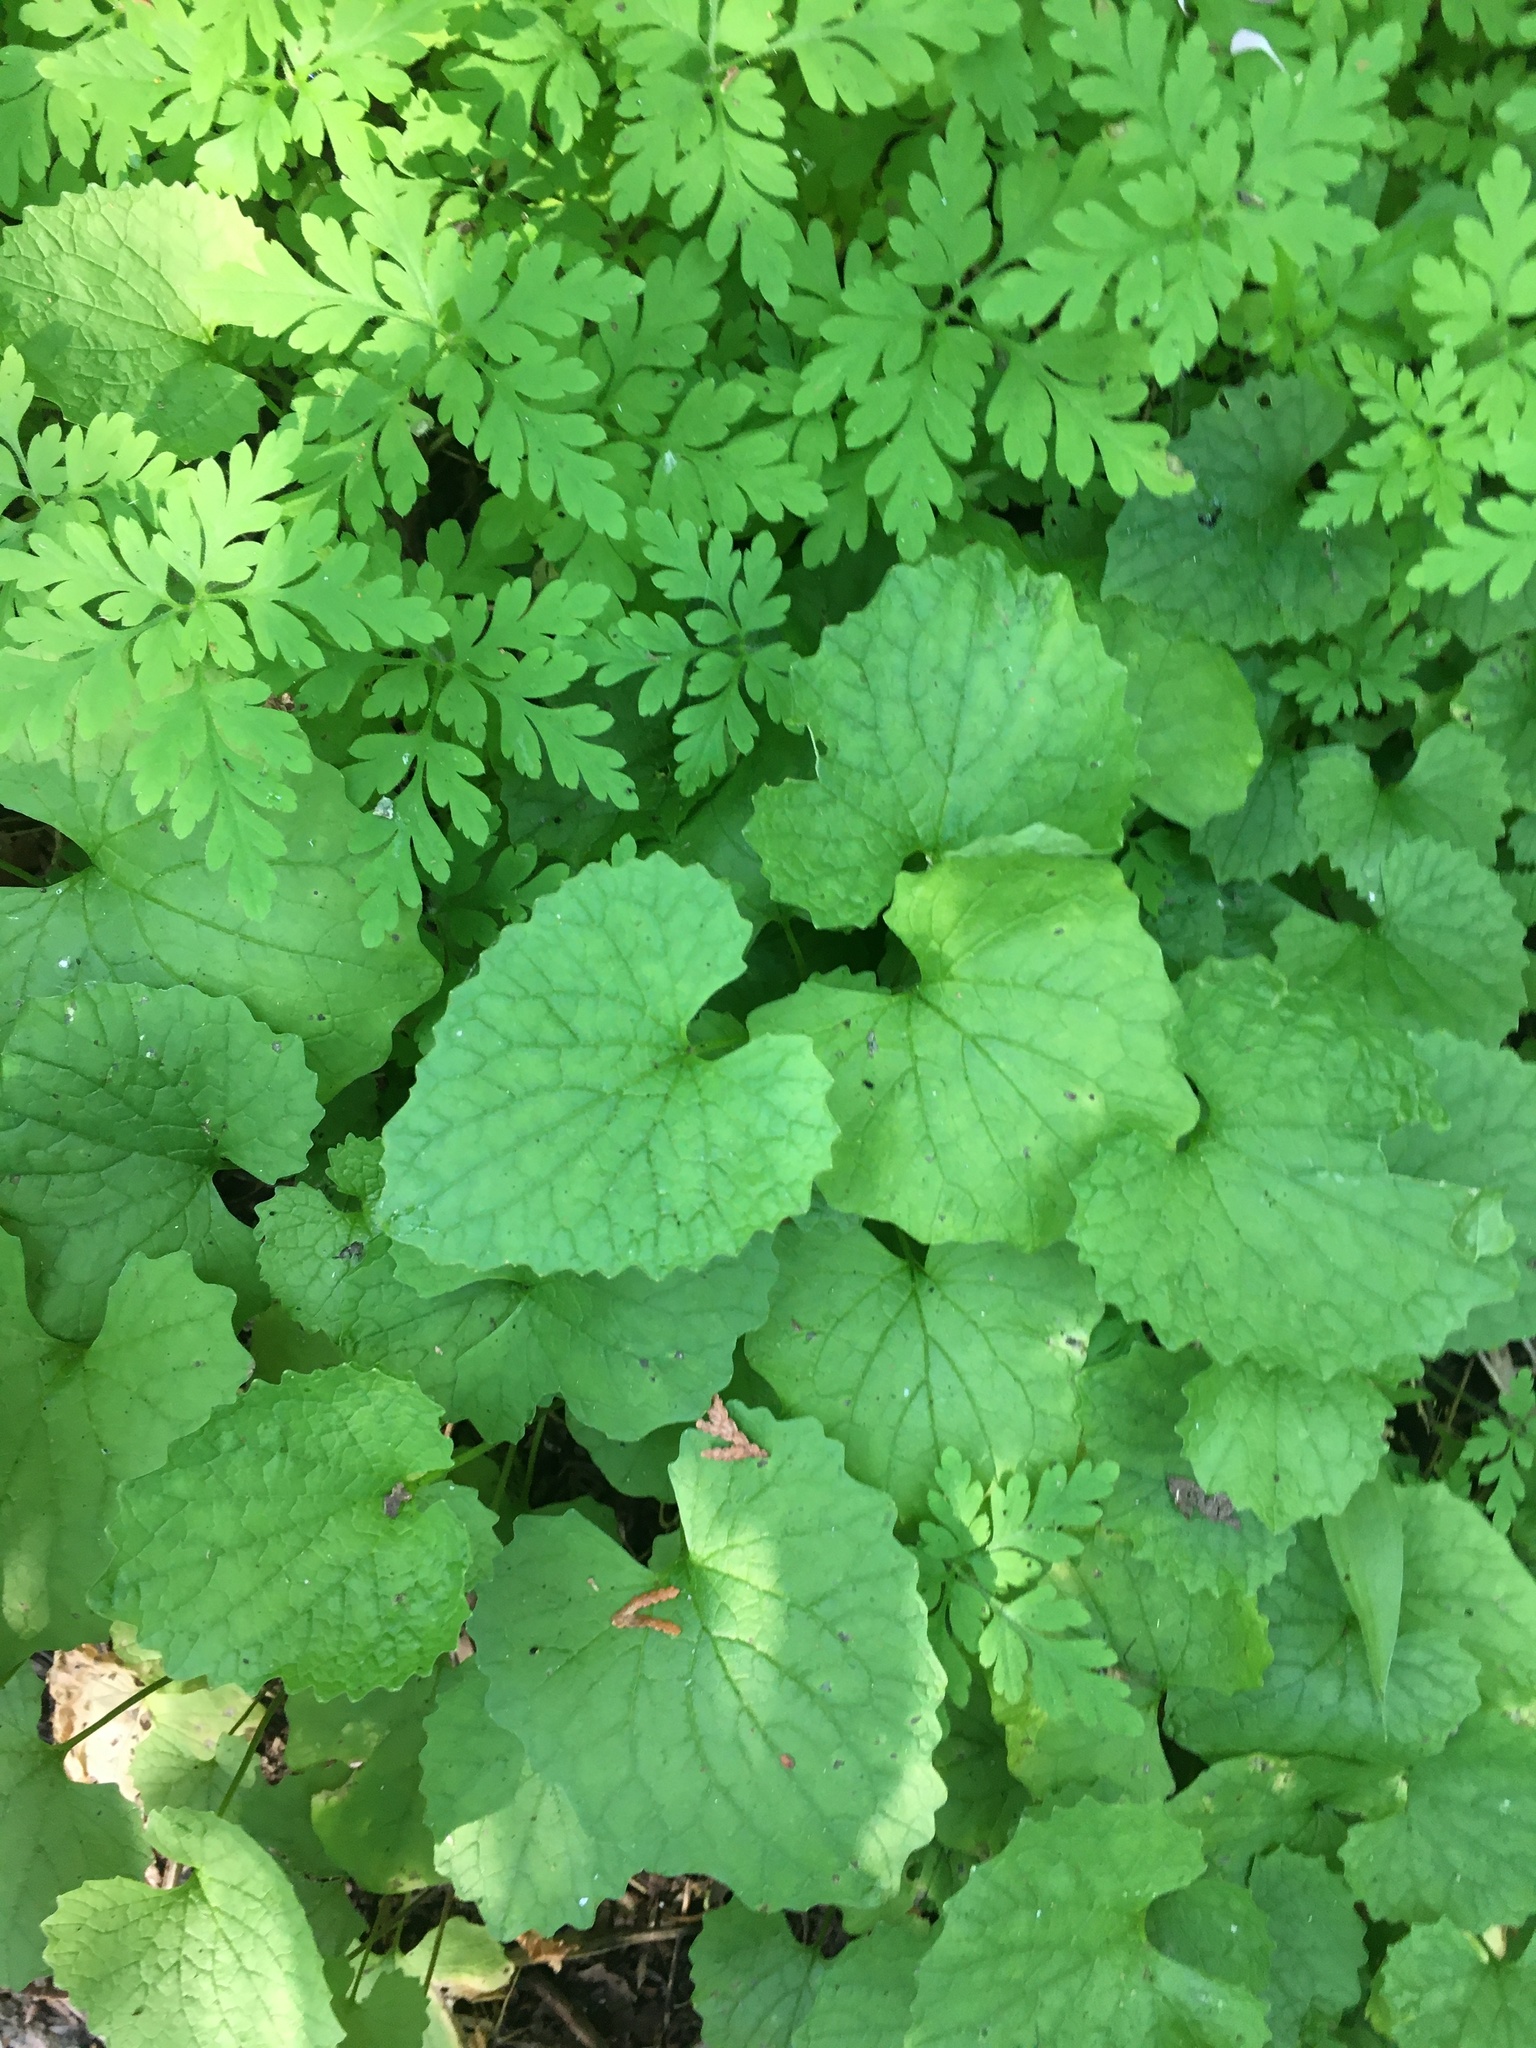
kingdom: Plantae
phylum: Tracheophyta
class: Magnoliopsida
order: Brassicales
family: Brassicaceae
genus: Alliaria
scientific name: Alliaria petiolata
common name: Garlic mustard
